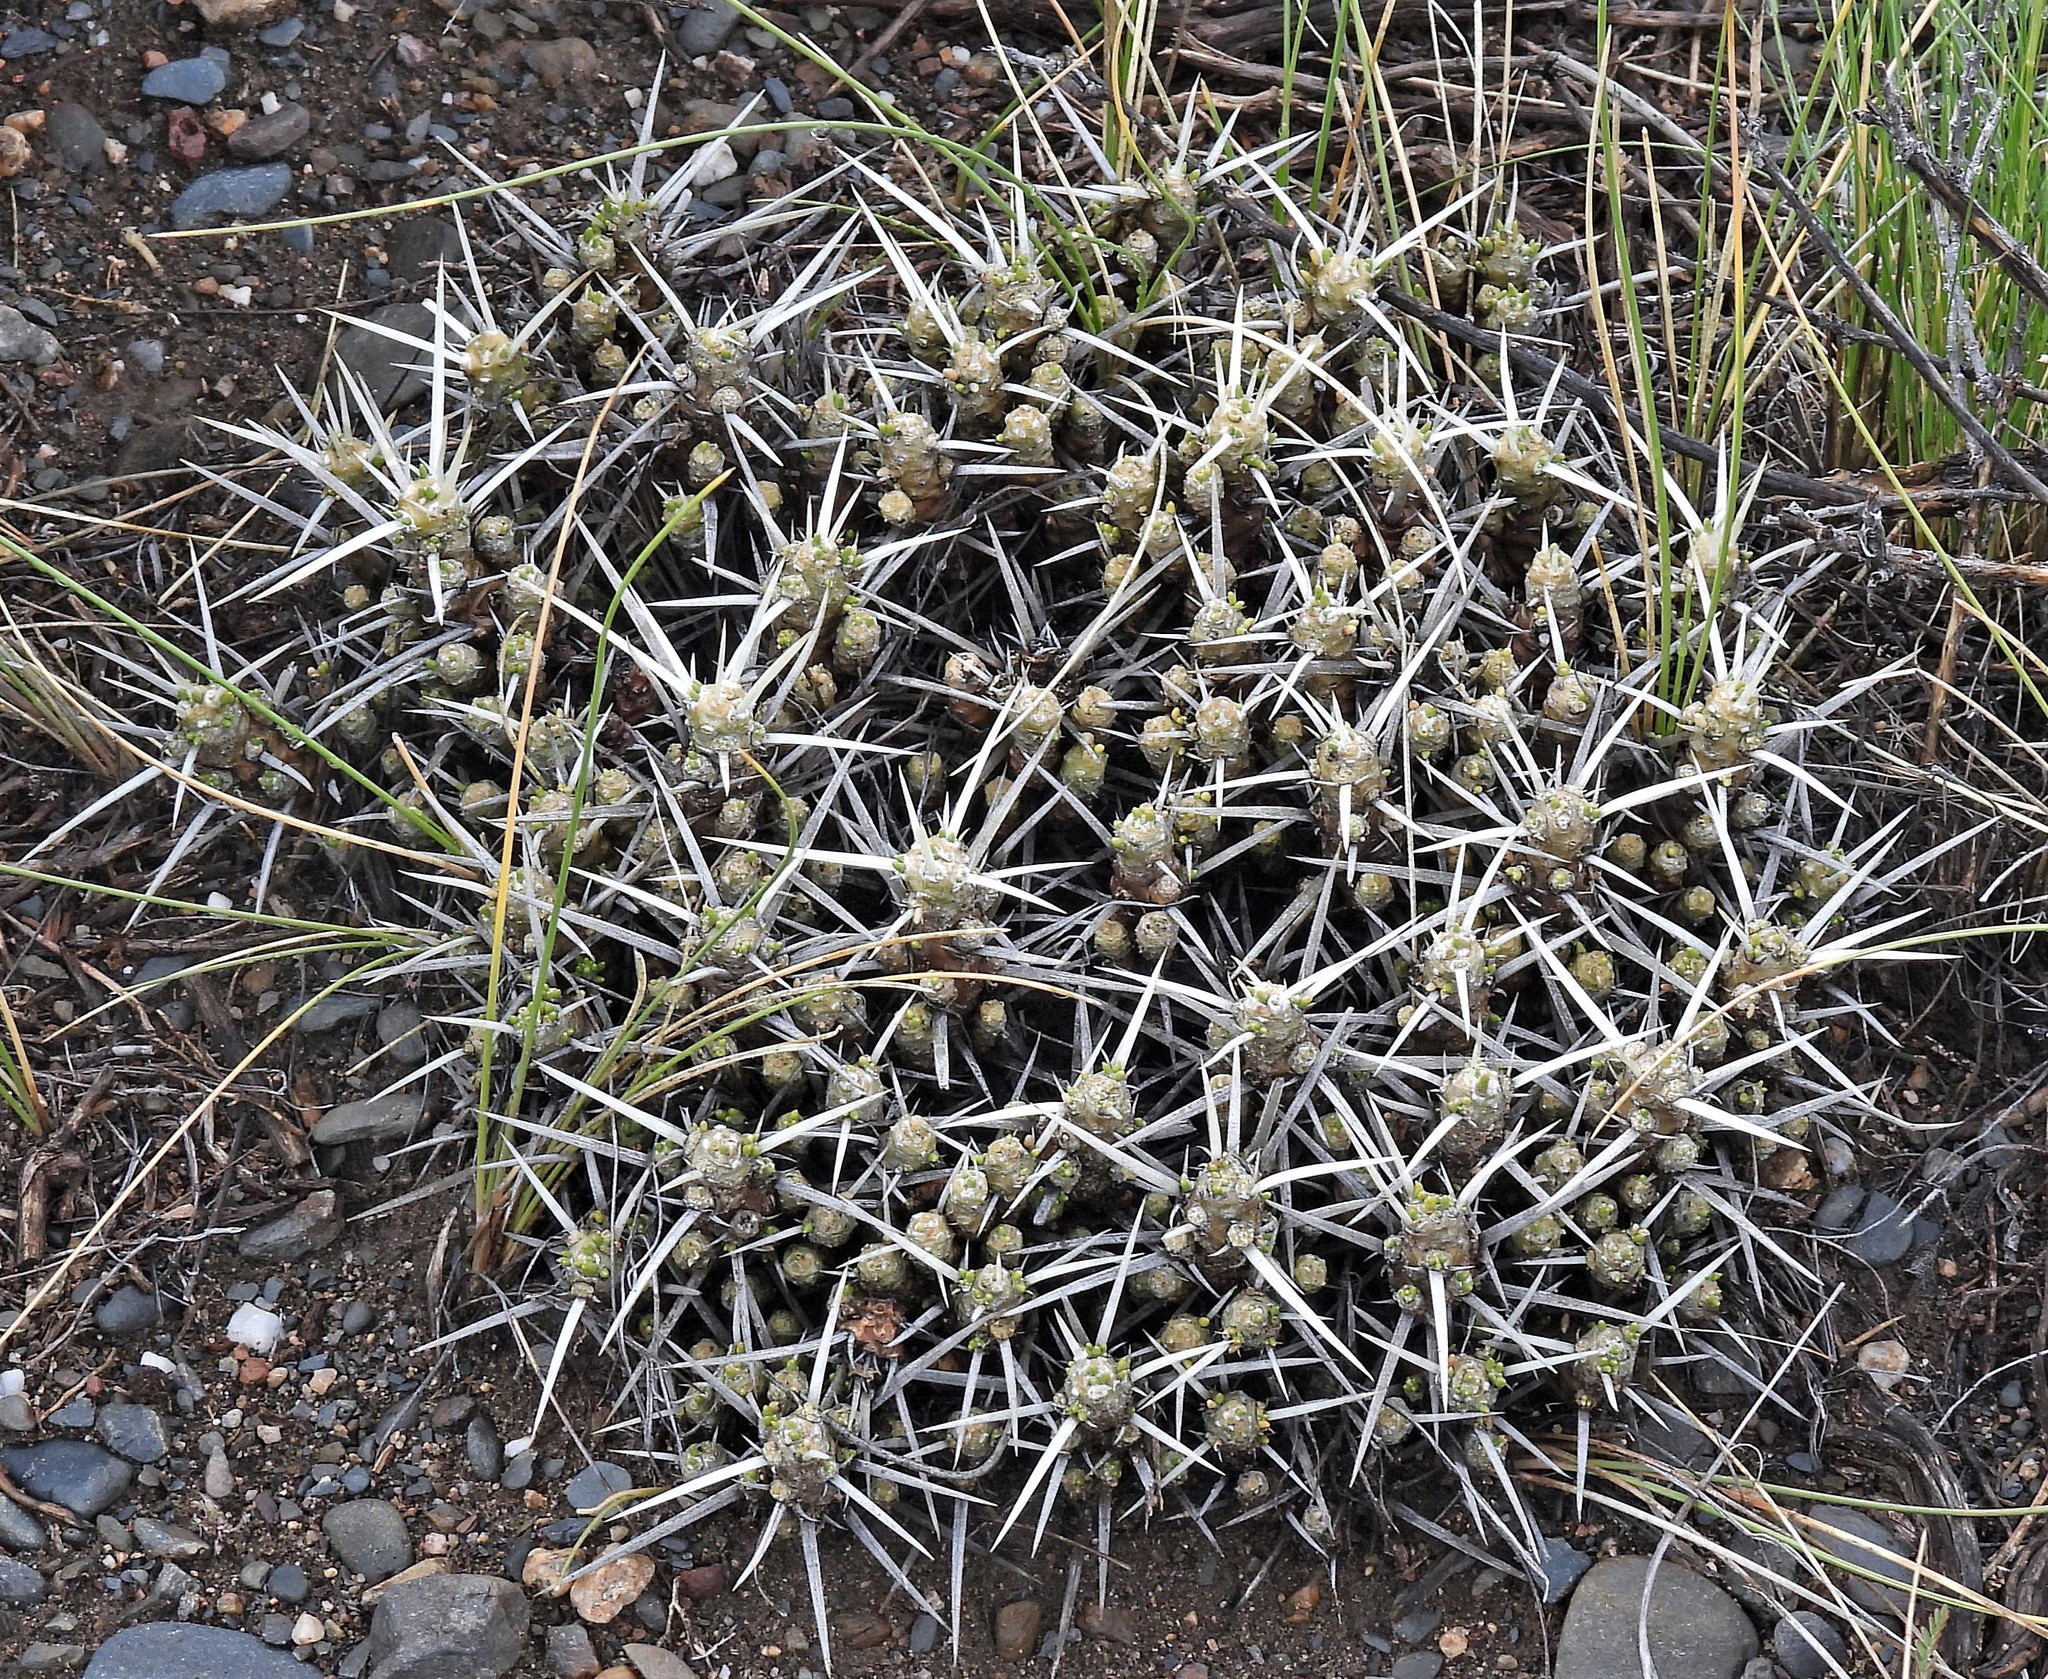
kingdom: Plantae
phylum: Tracheophyta
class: Magnoliopsida
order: Caryophyllales
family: Cactaceae
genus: Maihuenia
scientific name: Maihuenia patagonica
